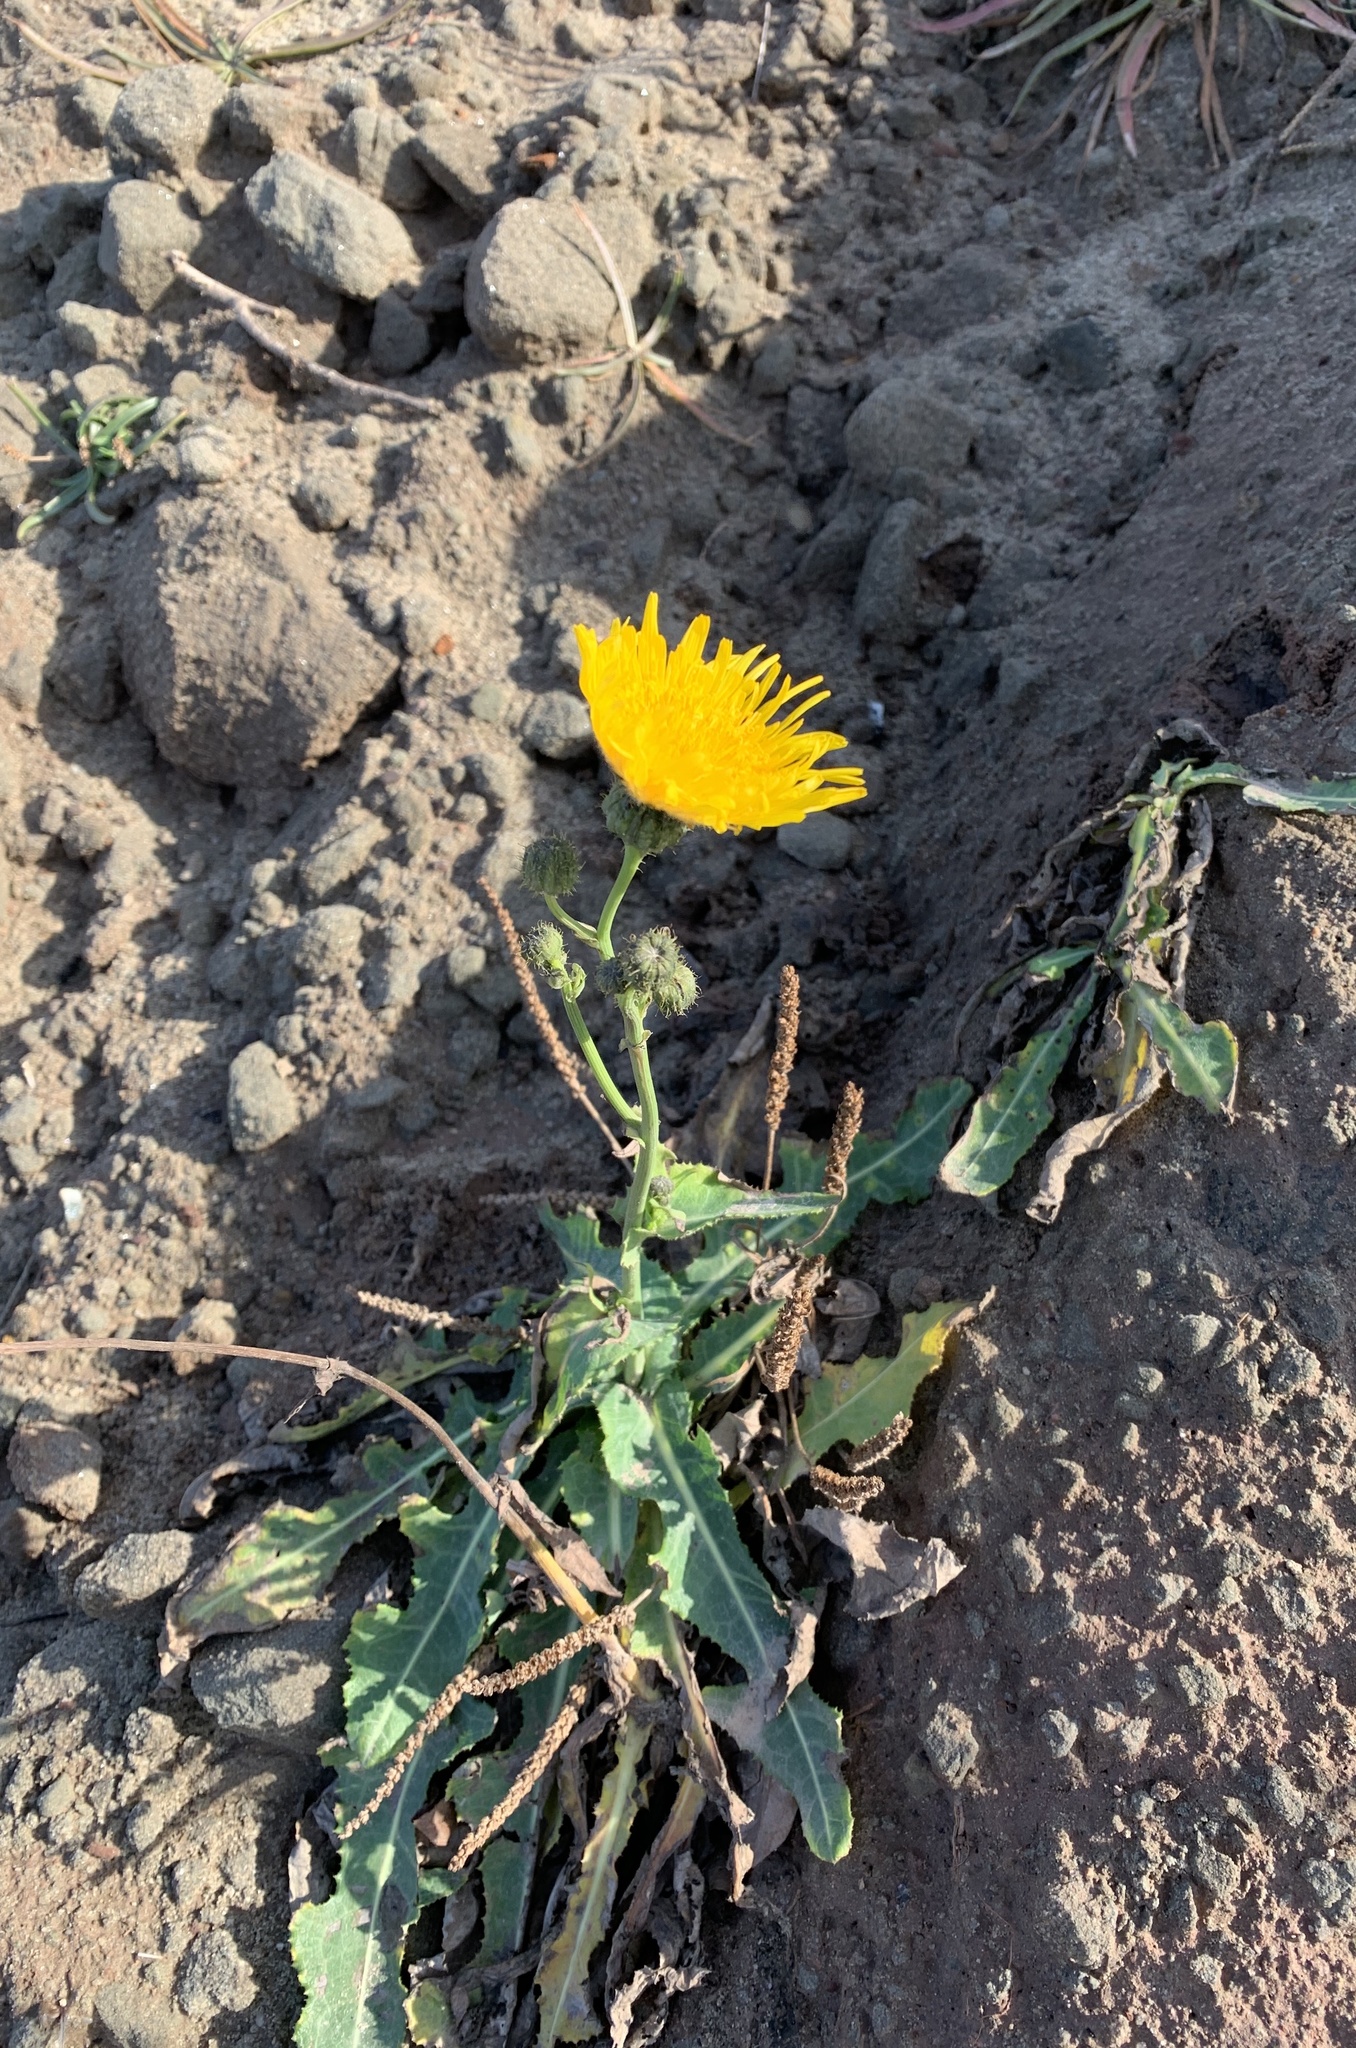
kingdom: Plantae
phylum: Tracheophyta
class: Magnoliopsida
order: Asterales
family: Asteraceae
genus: Sonchus
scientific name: Sonchus arvensis
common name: Perennial sow-thistle
